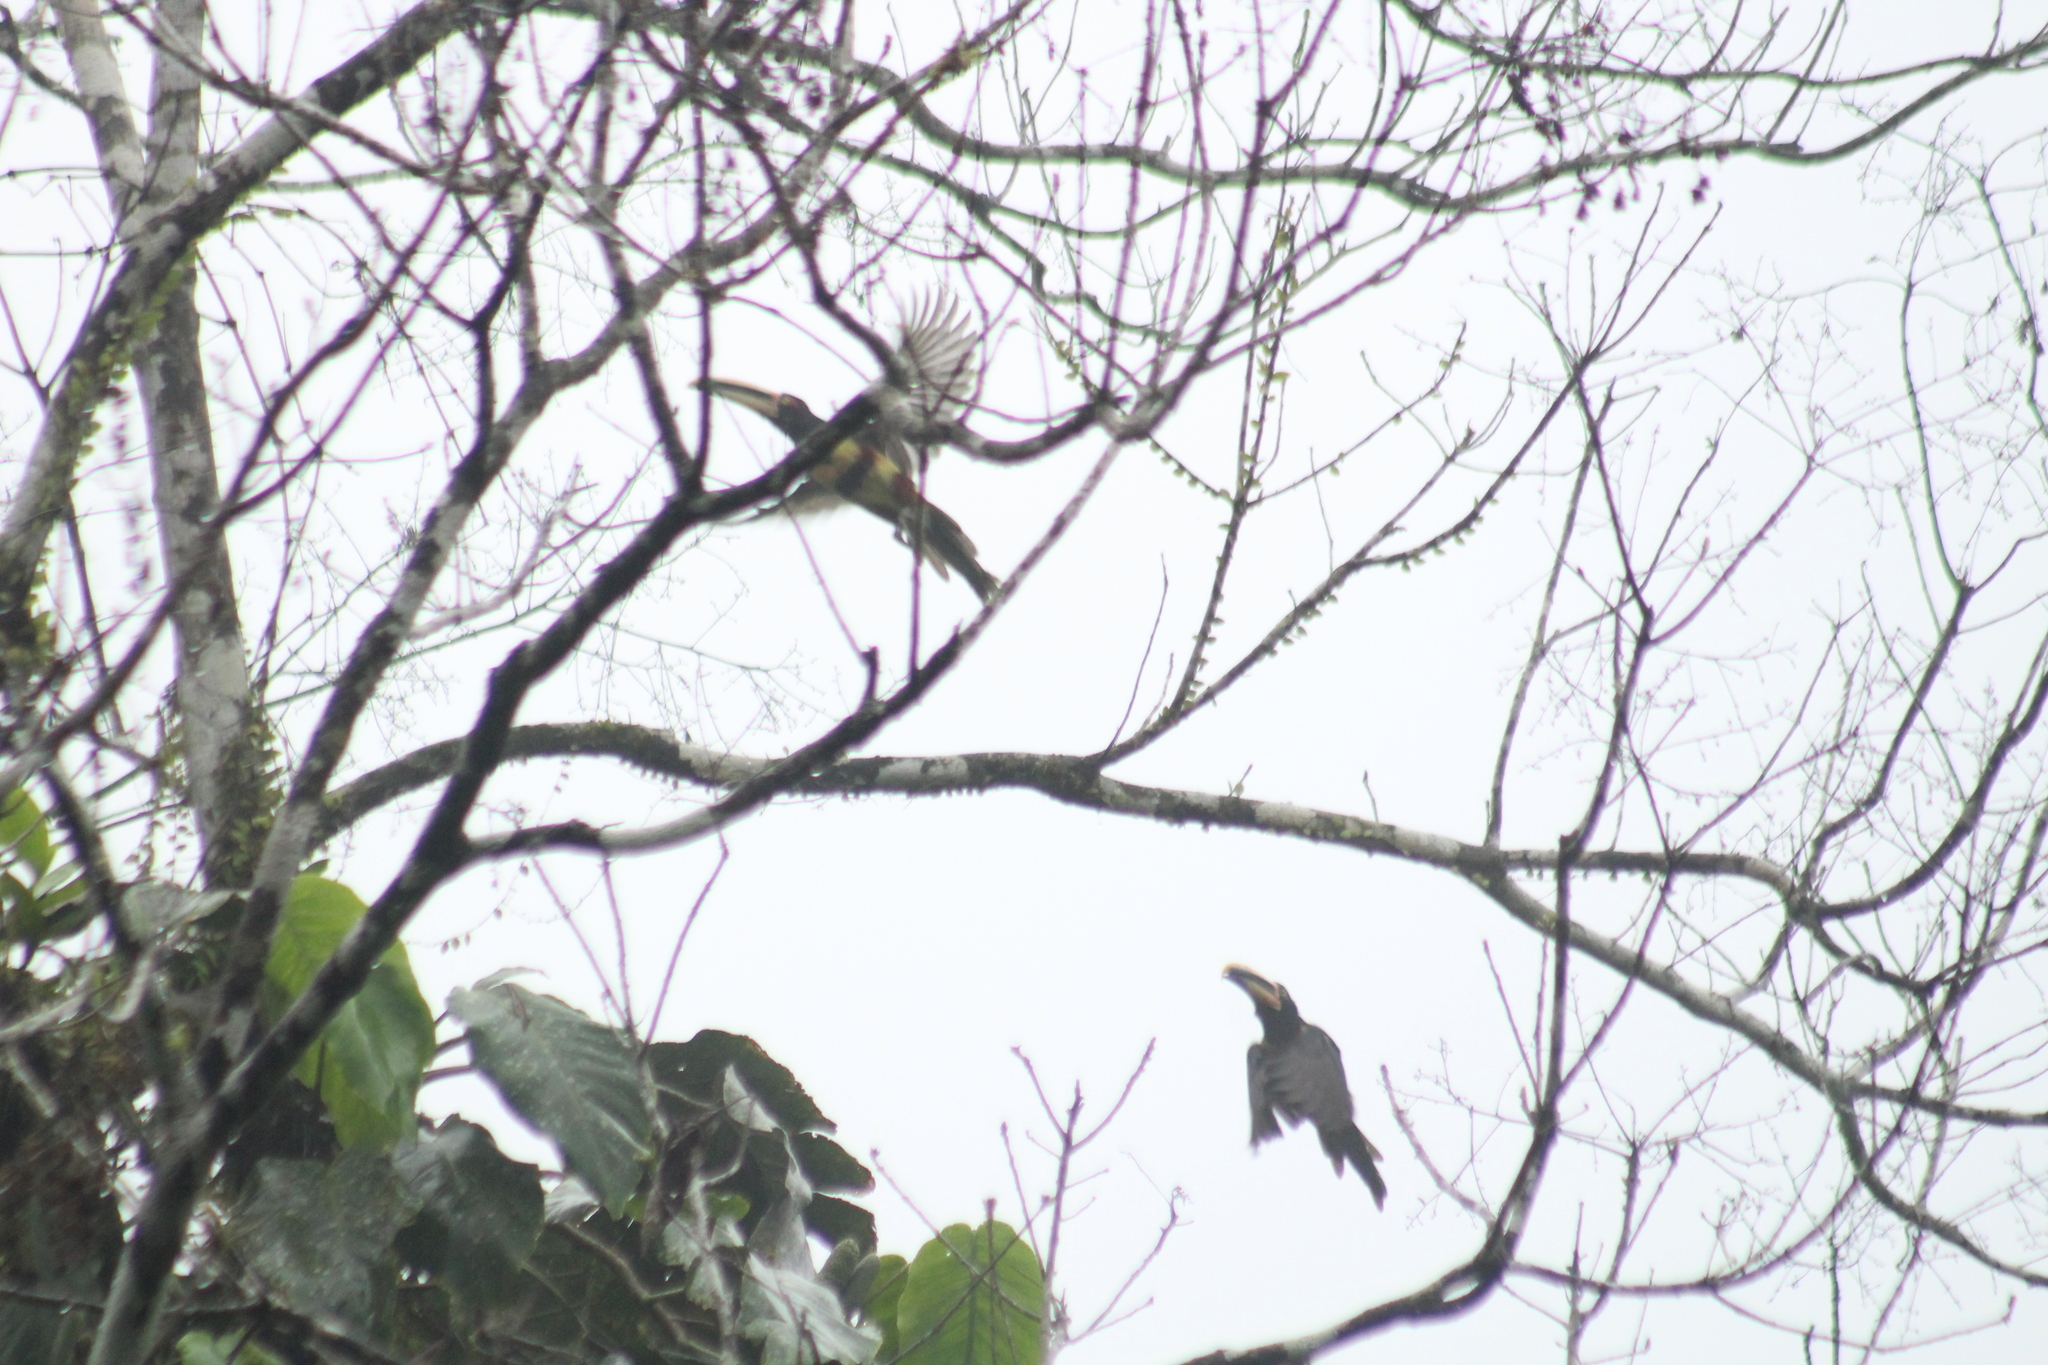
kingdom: Animalia
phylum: Chordata
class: Aves
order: Piciformes
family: Ramphastidae
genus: Pteroglossus
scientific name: Pteroglossus torquatus
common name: Collared aracari
